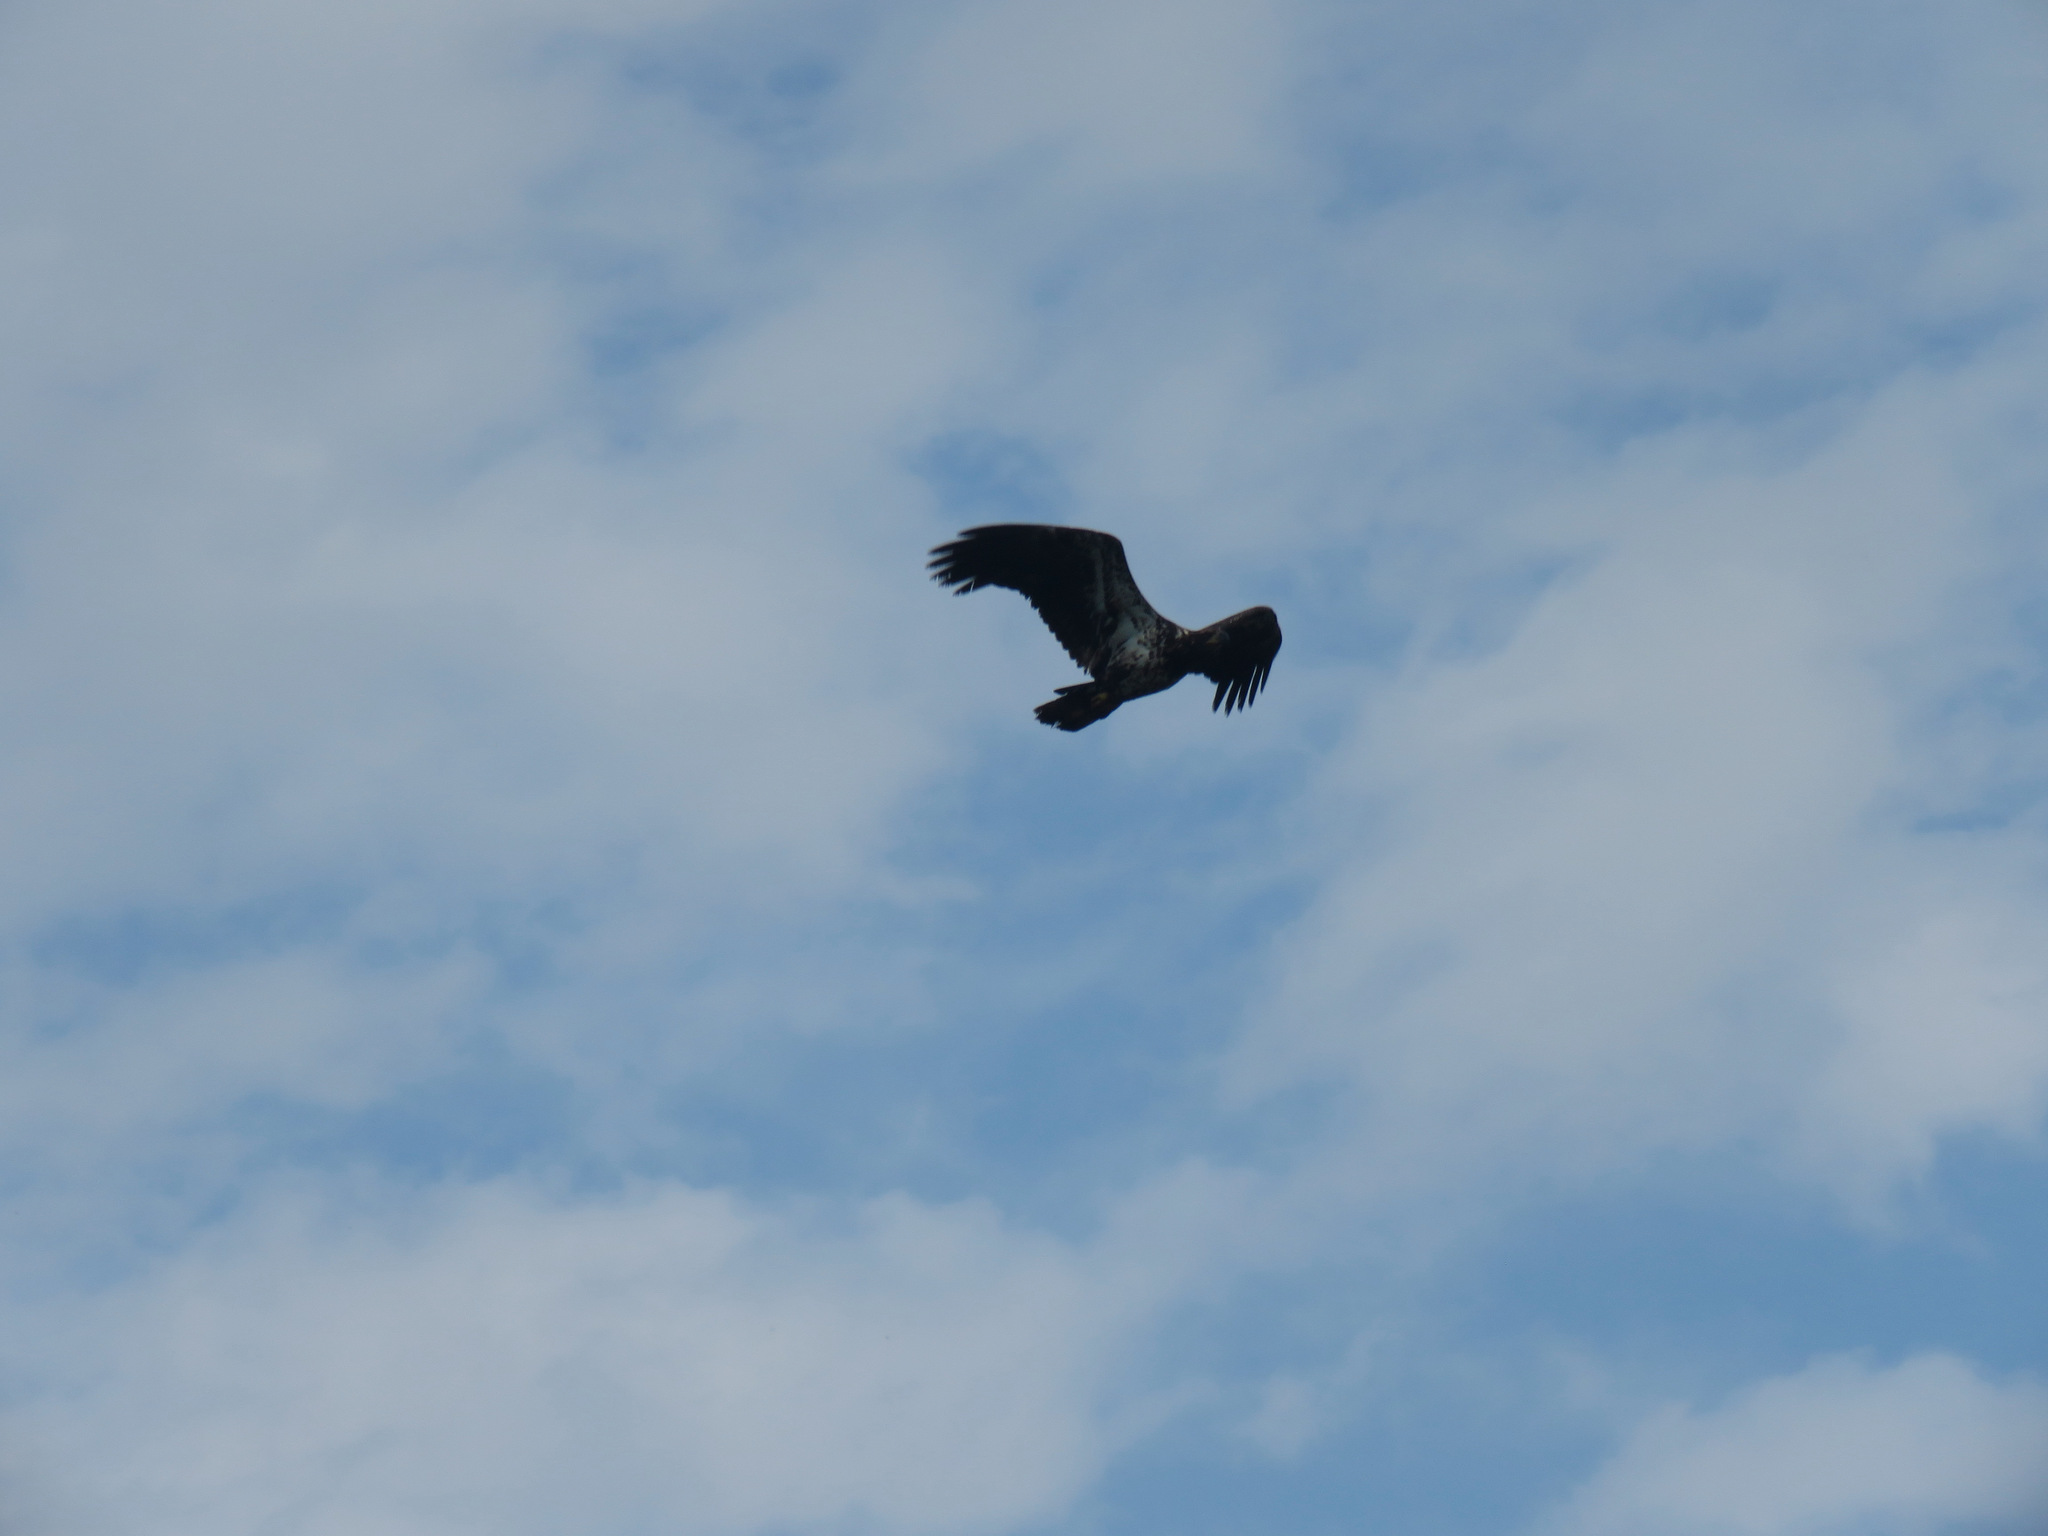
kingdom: Animalia
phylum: Chordata
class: Aves
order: Accipitriformes
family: Accipitridae
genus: Haliaeetus
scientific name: Haliaeetus leucocephalus
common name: Bald eagle
